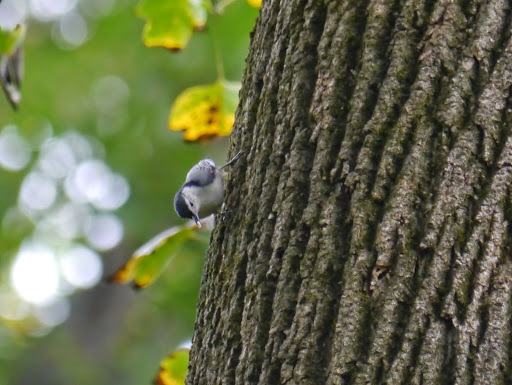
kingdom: Animalia
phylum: Chordata
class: Aves
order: Passeriformes
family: Sittidae
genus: Sitta
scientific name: Sitta carolinensis
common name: White-breasted nuthatch
